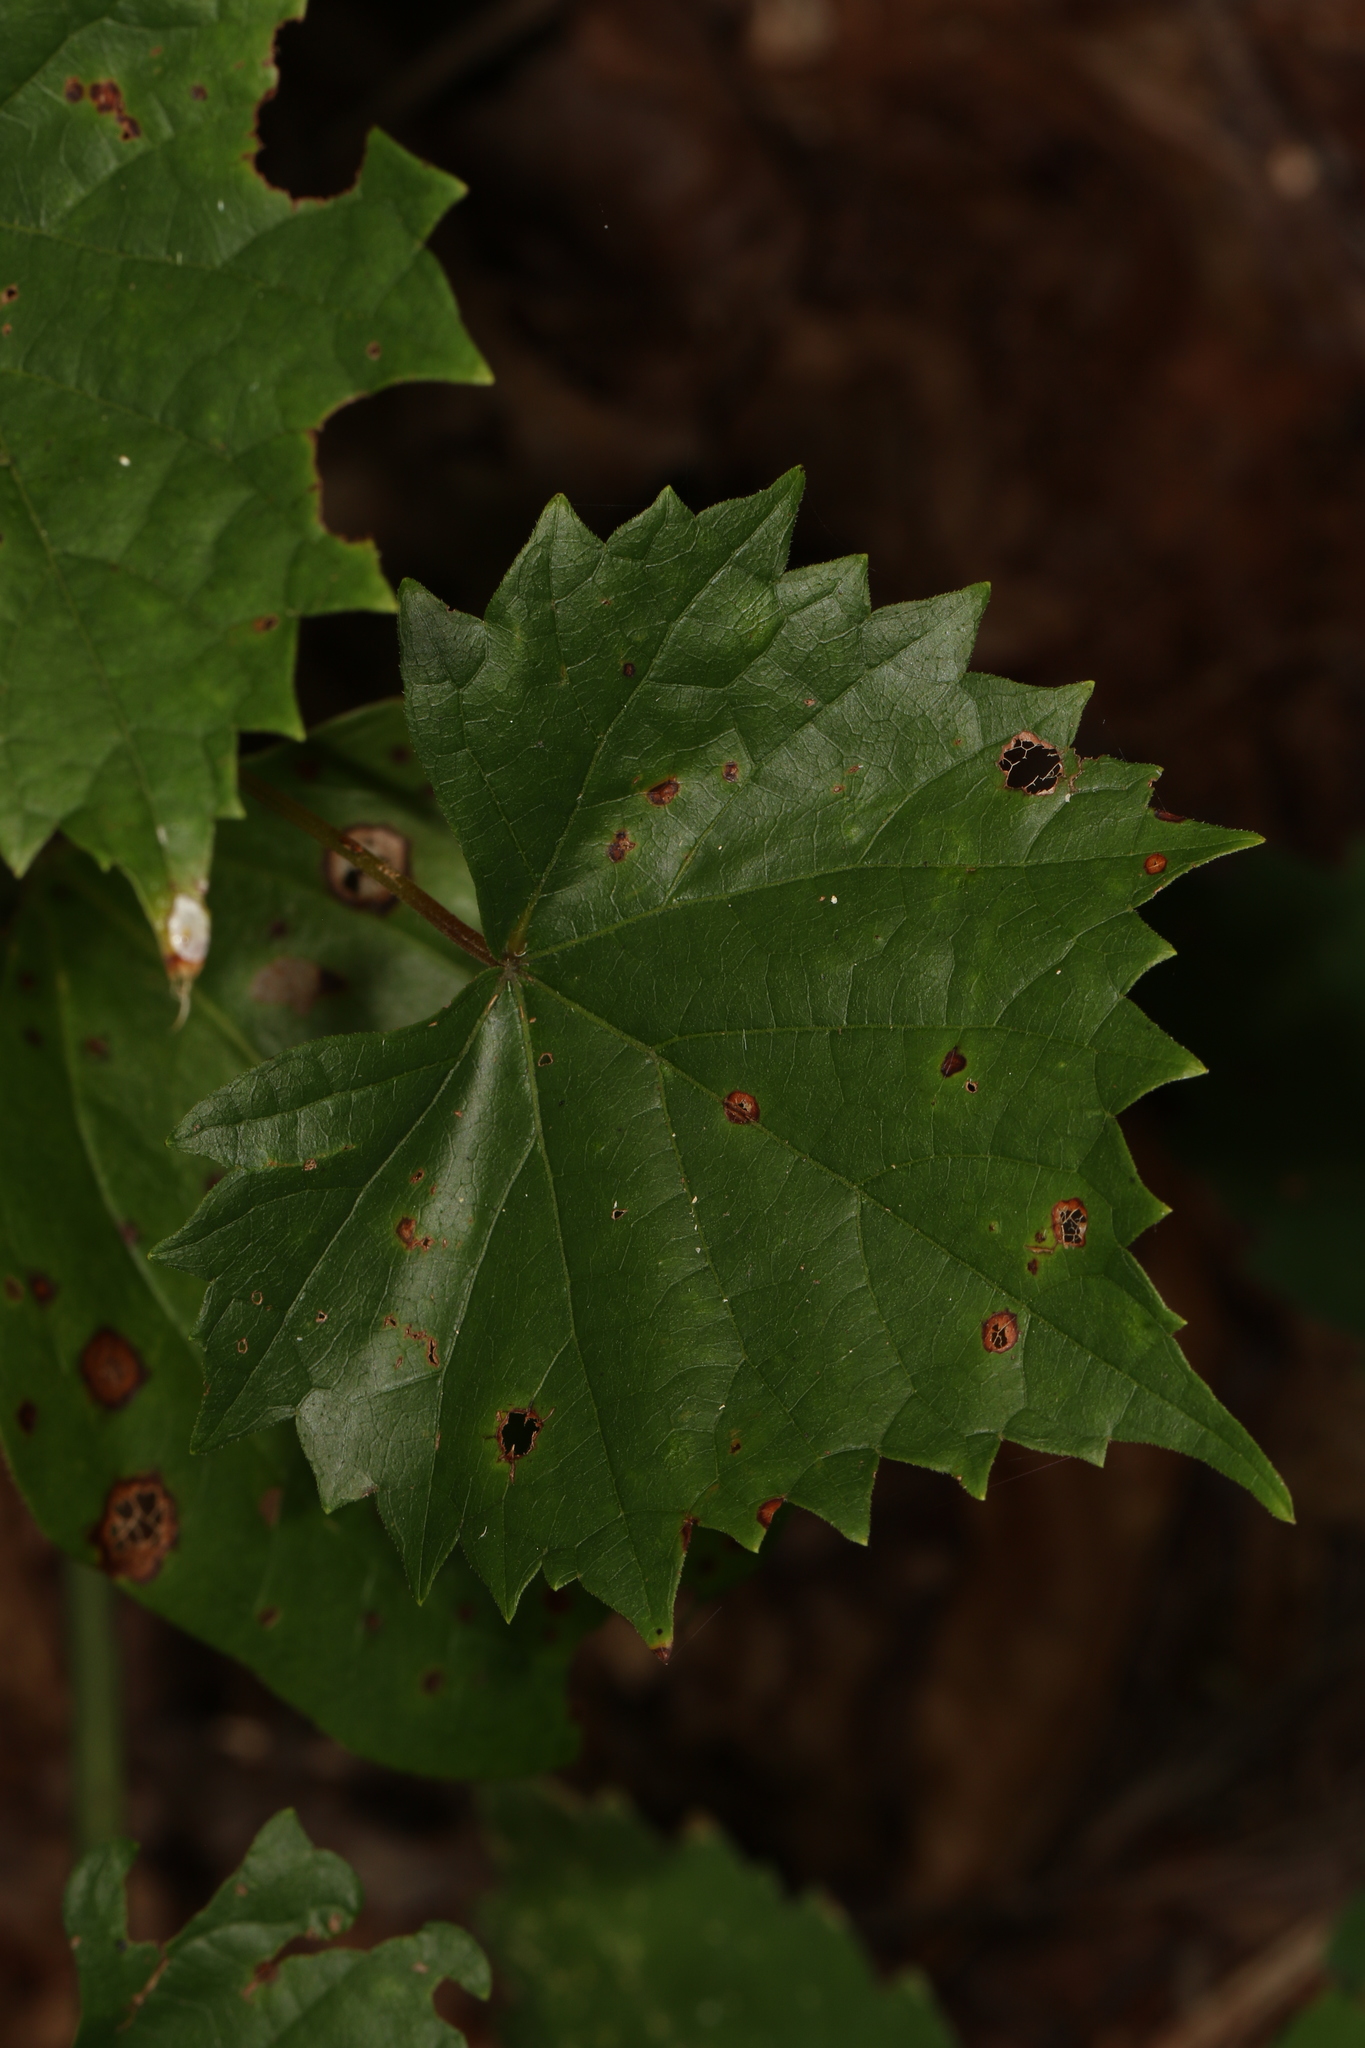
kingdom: Plantae
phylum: Tracheophyta
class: Magnoliopsida
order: Vitales
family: Vitaceae
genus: Vitis
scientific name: Vitis rotundifolia
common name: Muscadine grape
